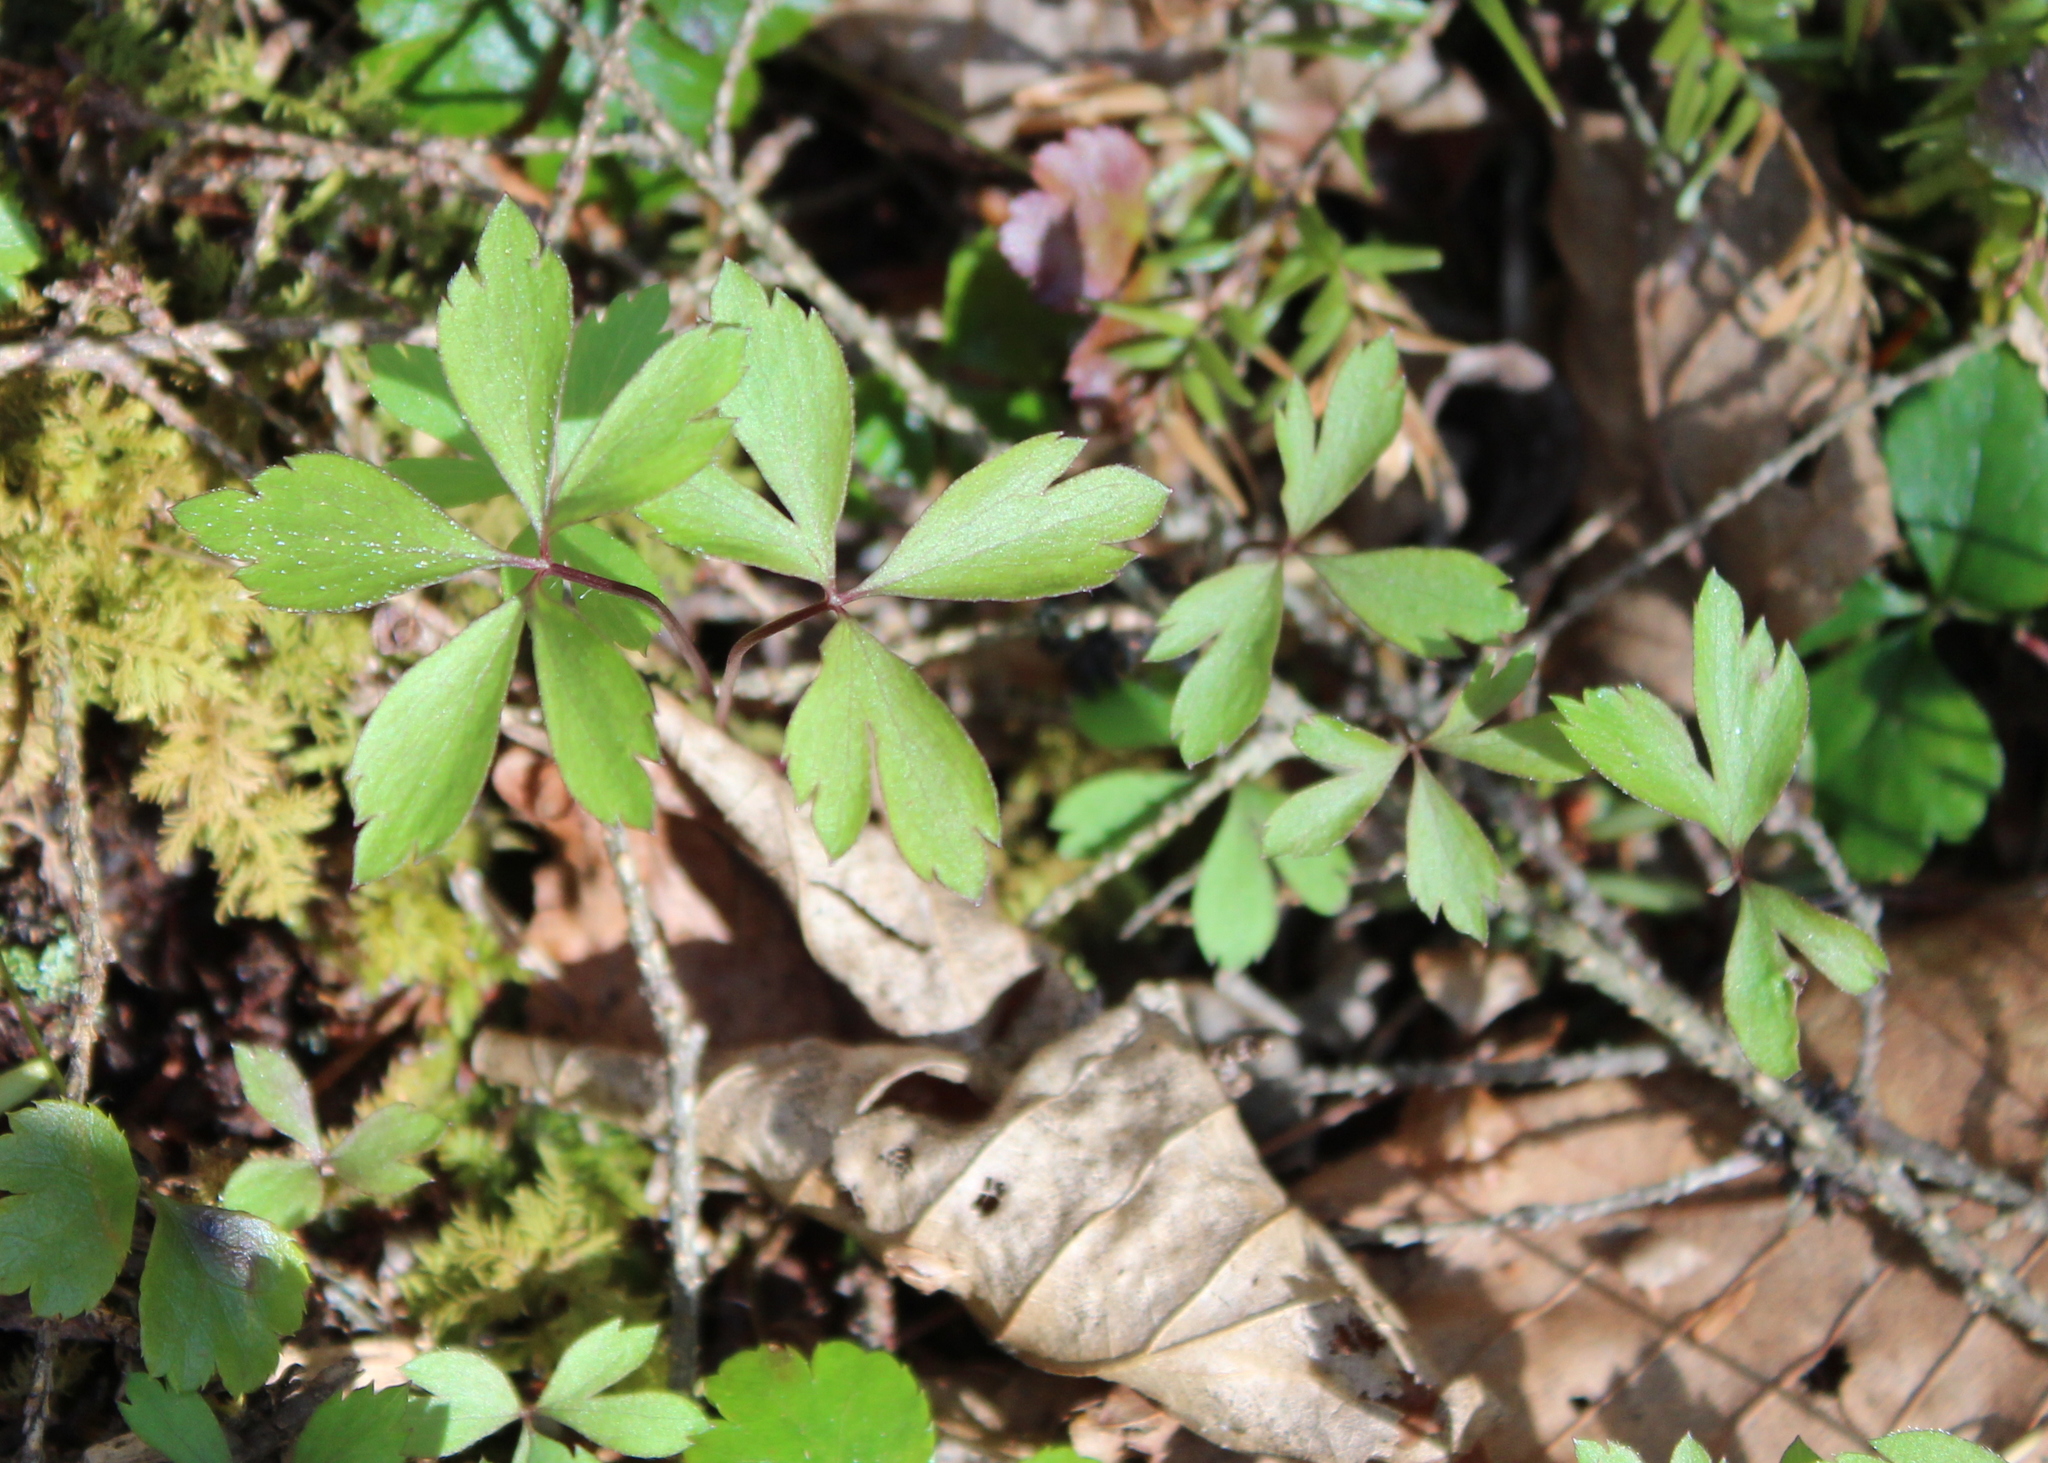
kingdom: Plantae
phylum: Tracheophyta
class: Magnoliopsida
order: Ranunculales
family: Ranunculaceae
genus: Anemone
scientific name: Anemone quinquefolia
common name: Wood anemone
